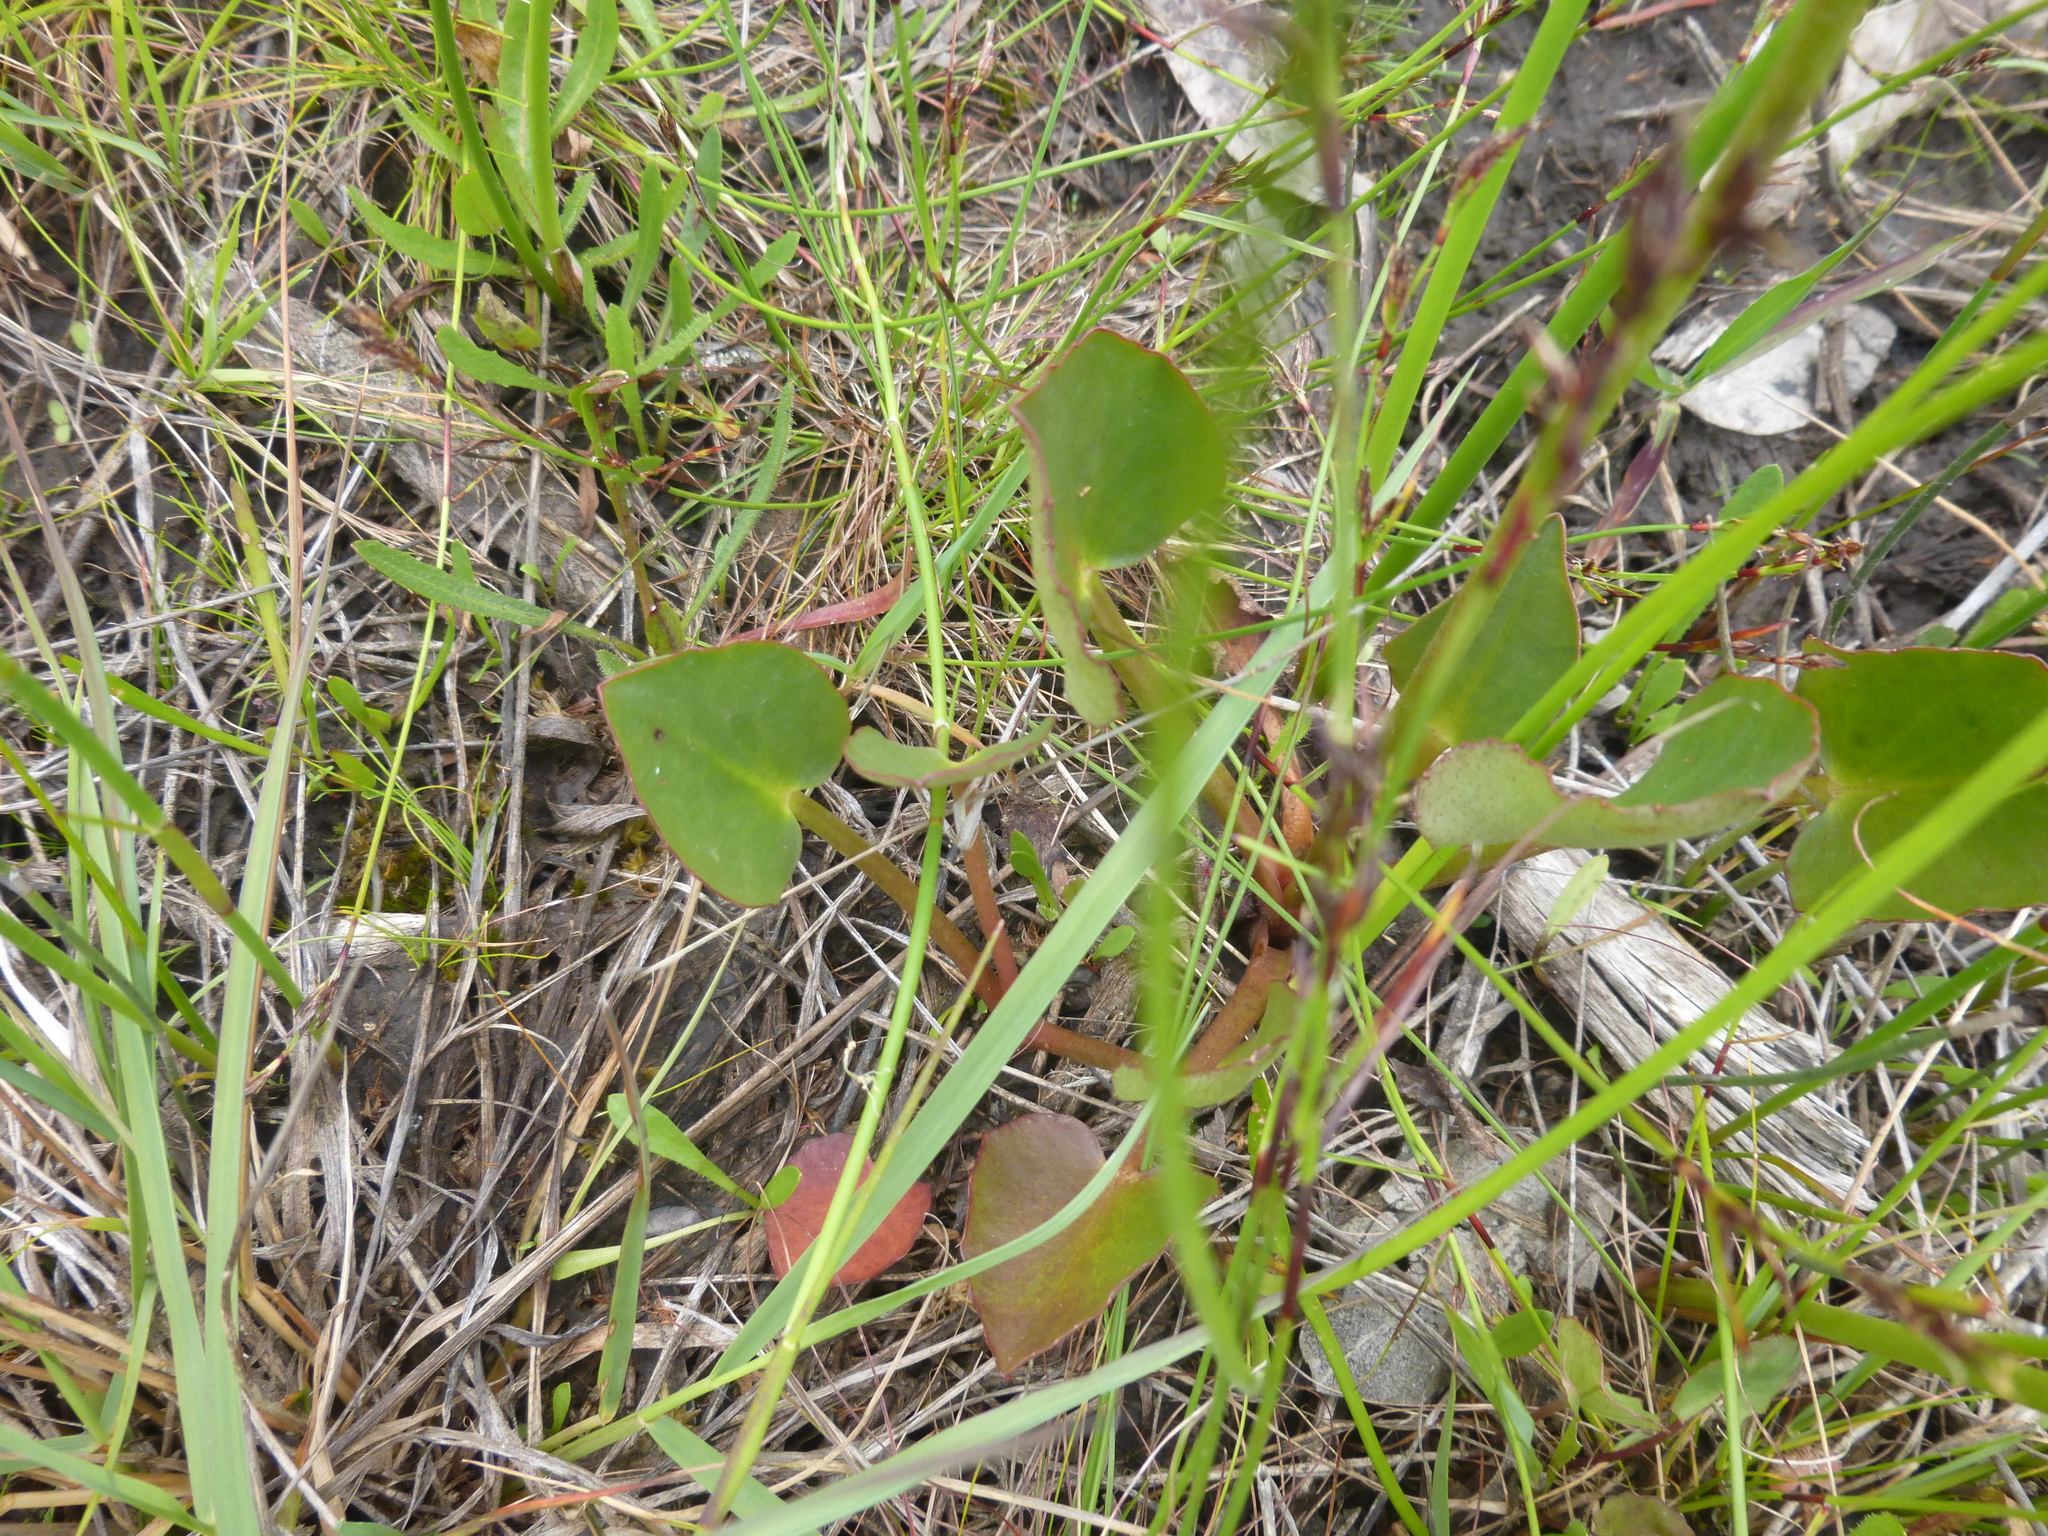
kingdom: Plantae
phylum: Tracheophyta
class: Magnoliopsida
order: Asterales
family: Menyanthaceae
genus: Ornduffia
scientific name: Ornduffia reniformis
